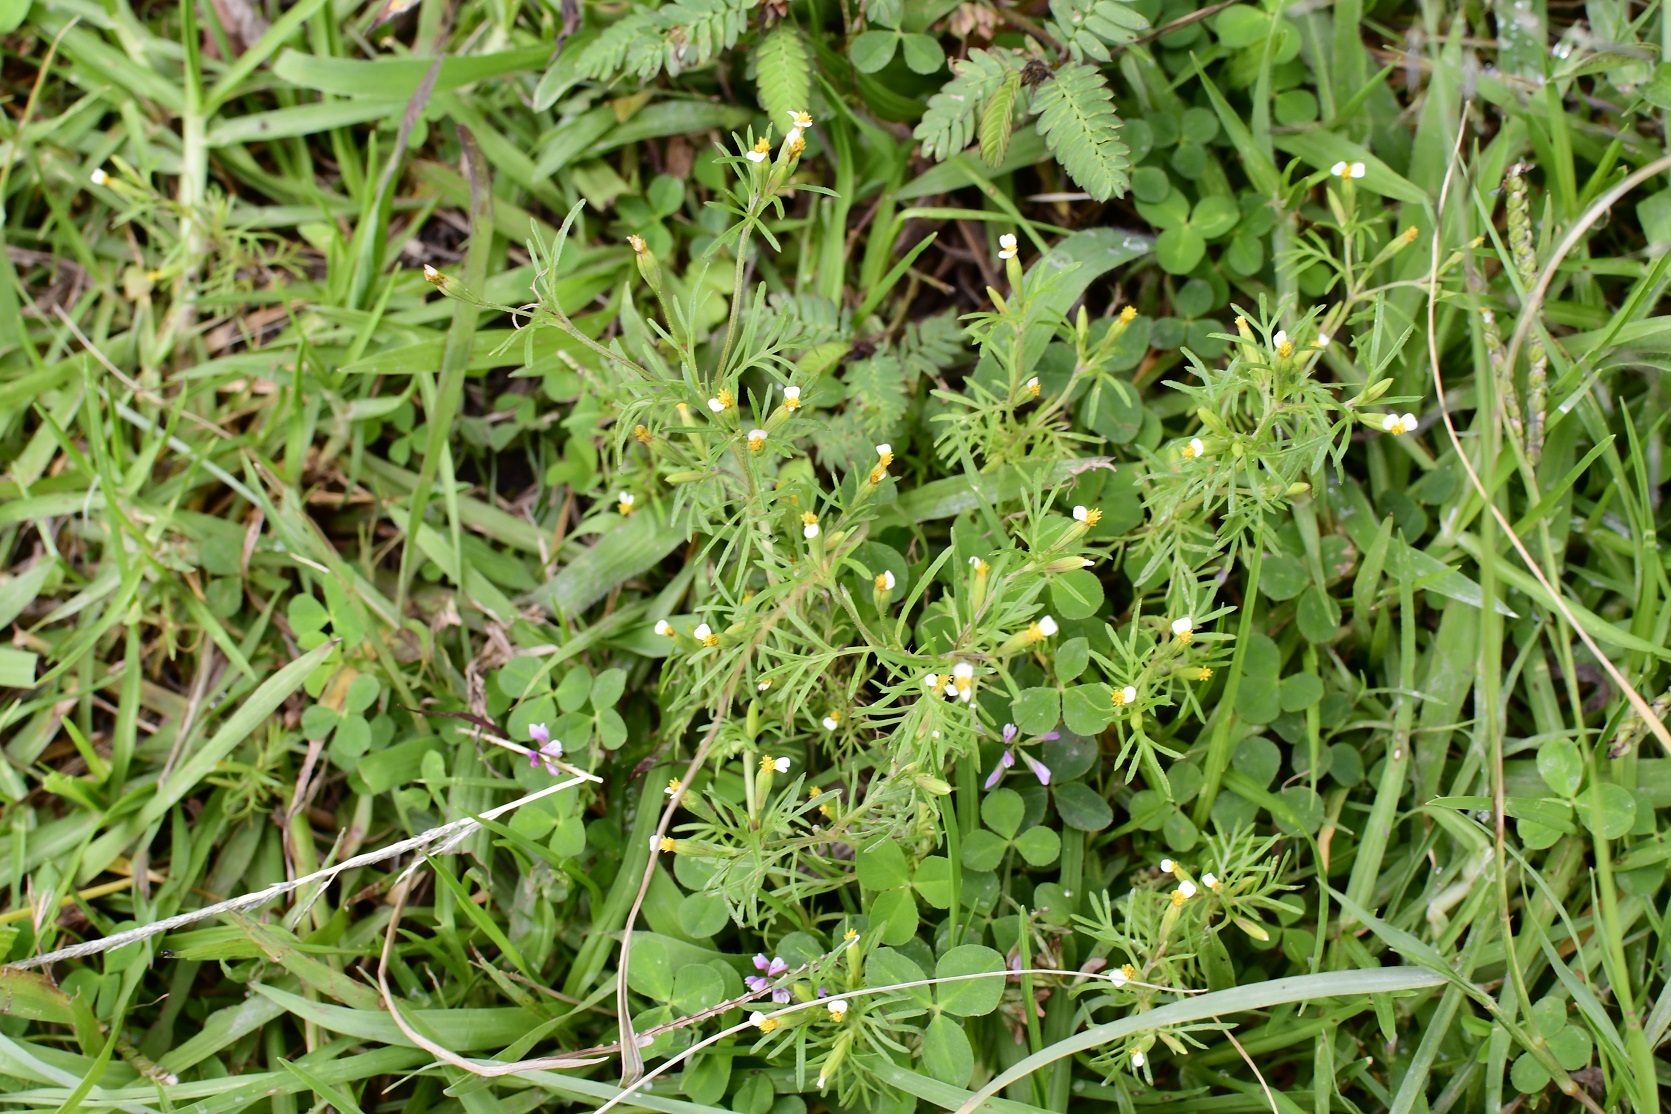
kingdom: Plantae
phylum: Tracheophyta
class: Magnoliopsida
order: Asterales
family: Asteraceae
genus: Tagetes
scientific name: Tagetes filifolia
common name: Lesser marigold
